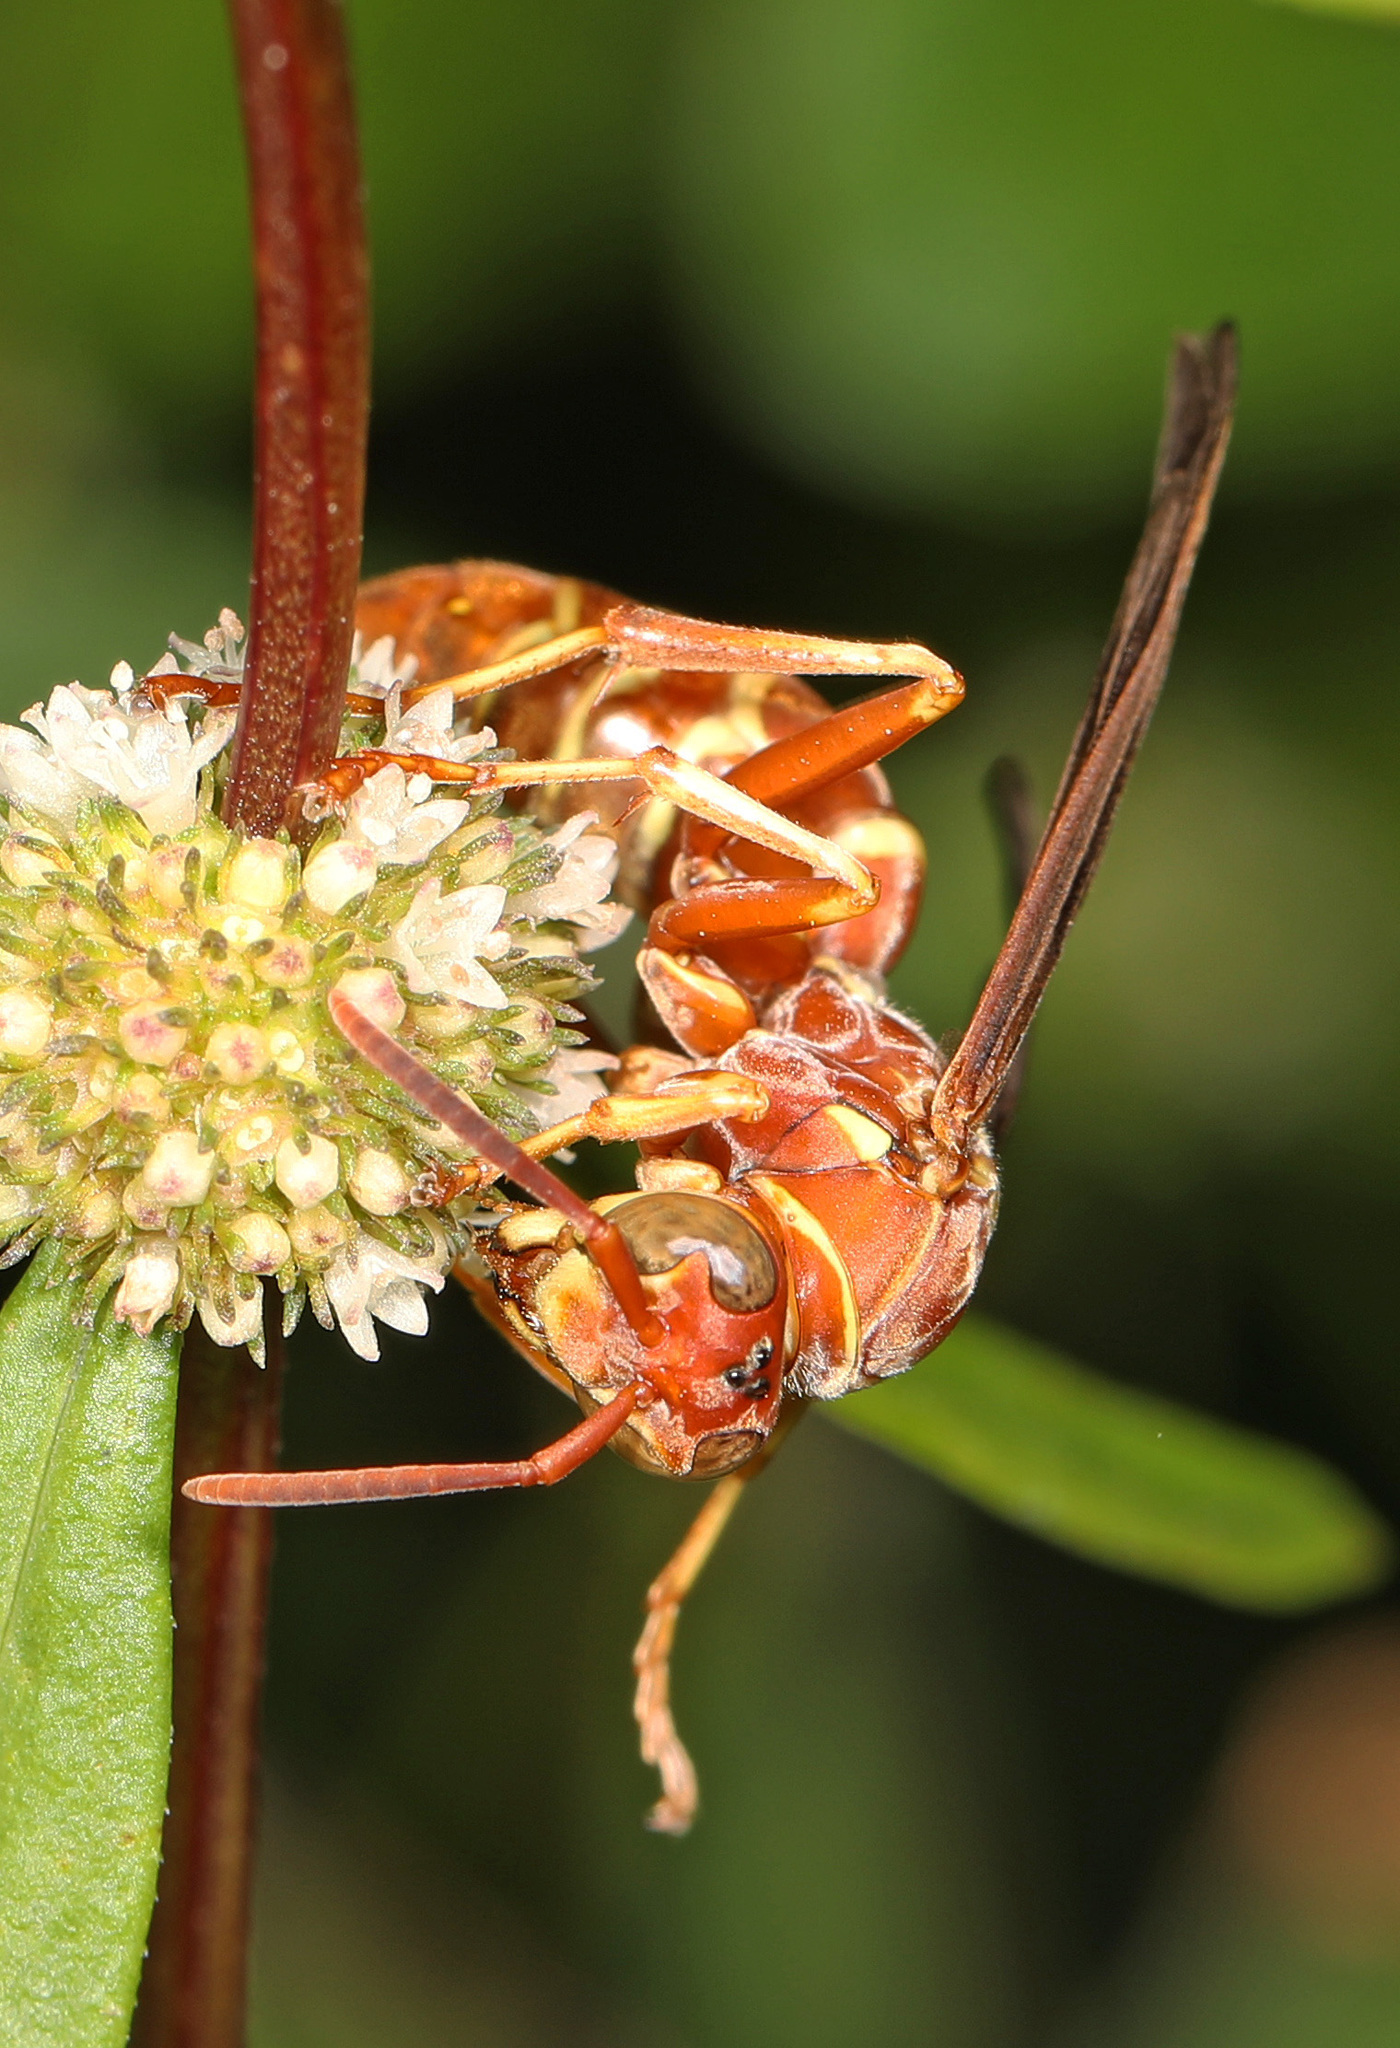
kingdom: Animalia
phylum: Arthropoda
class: Insecta
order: Hymenoptera
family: Eumenidae
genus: Polistes
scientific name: Polistes bellicosus
